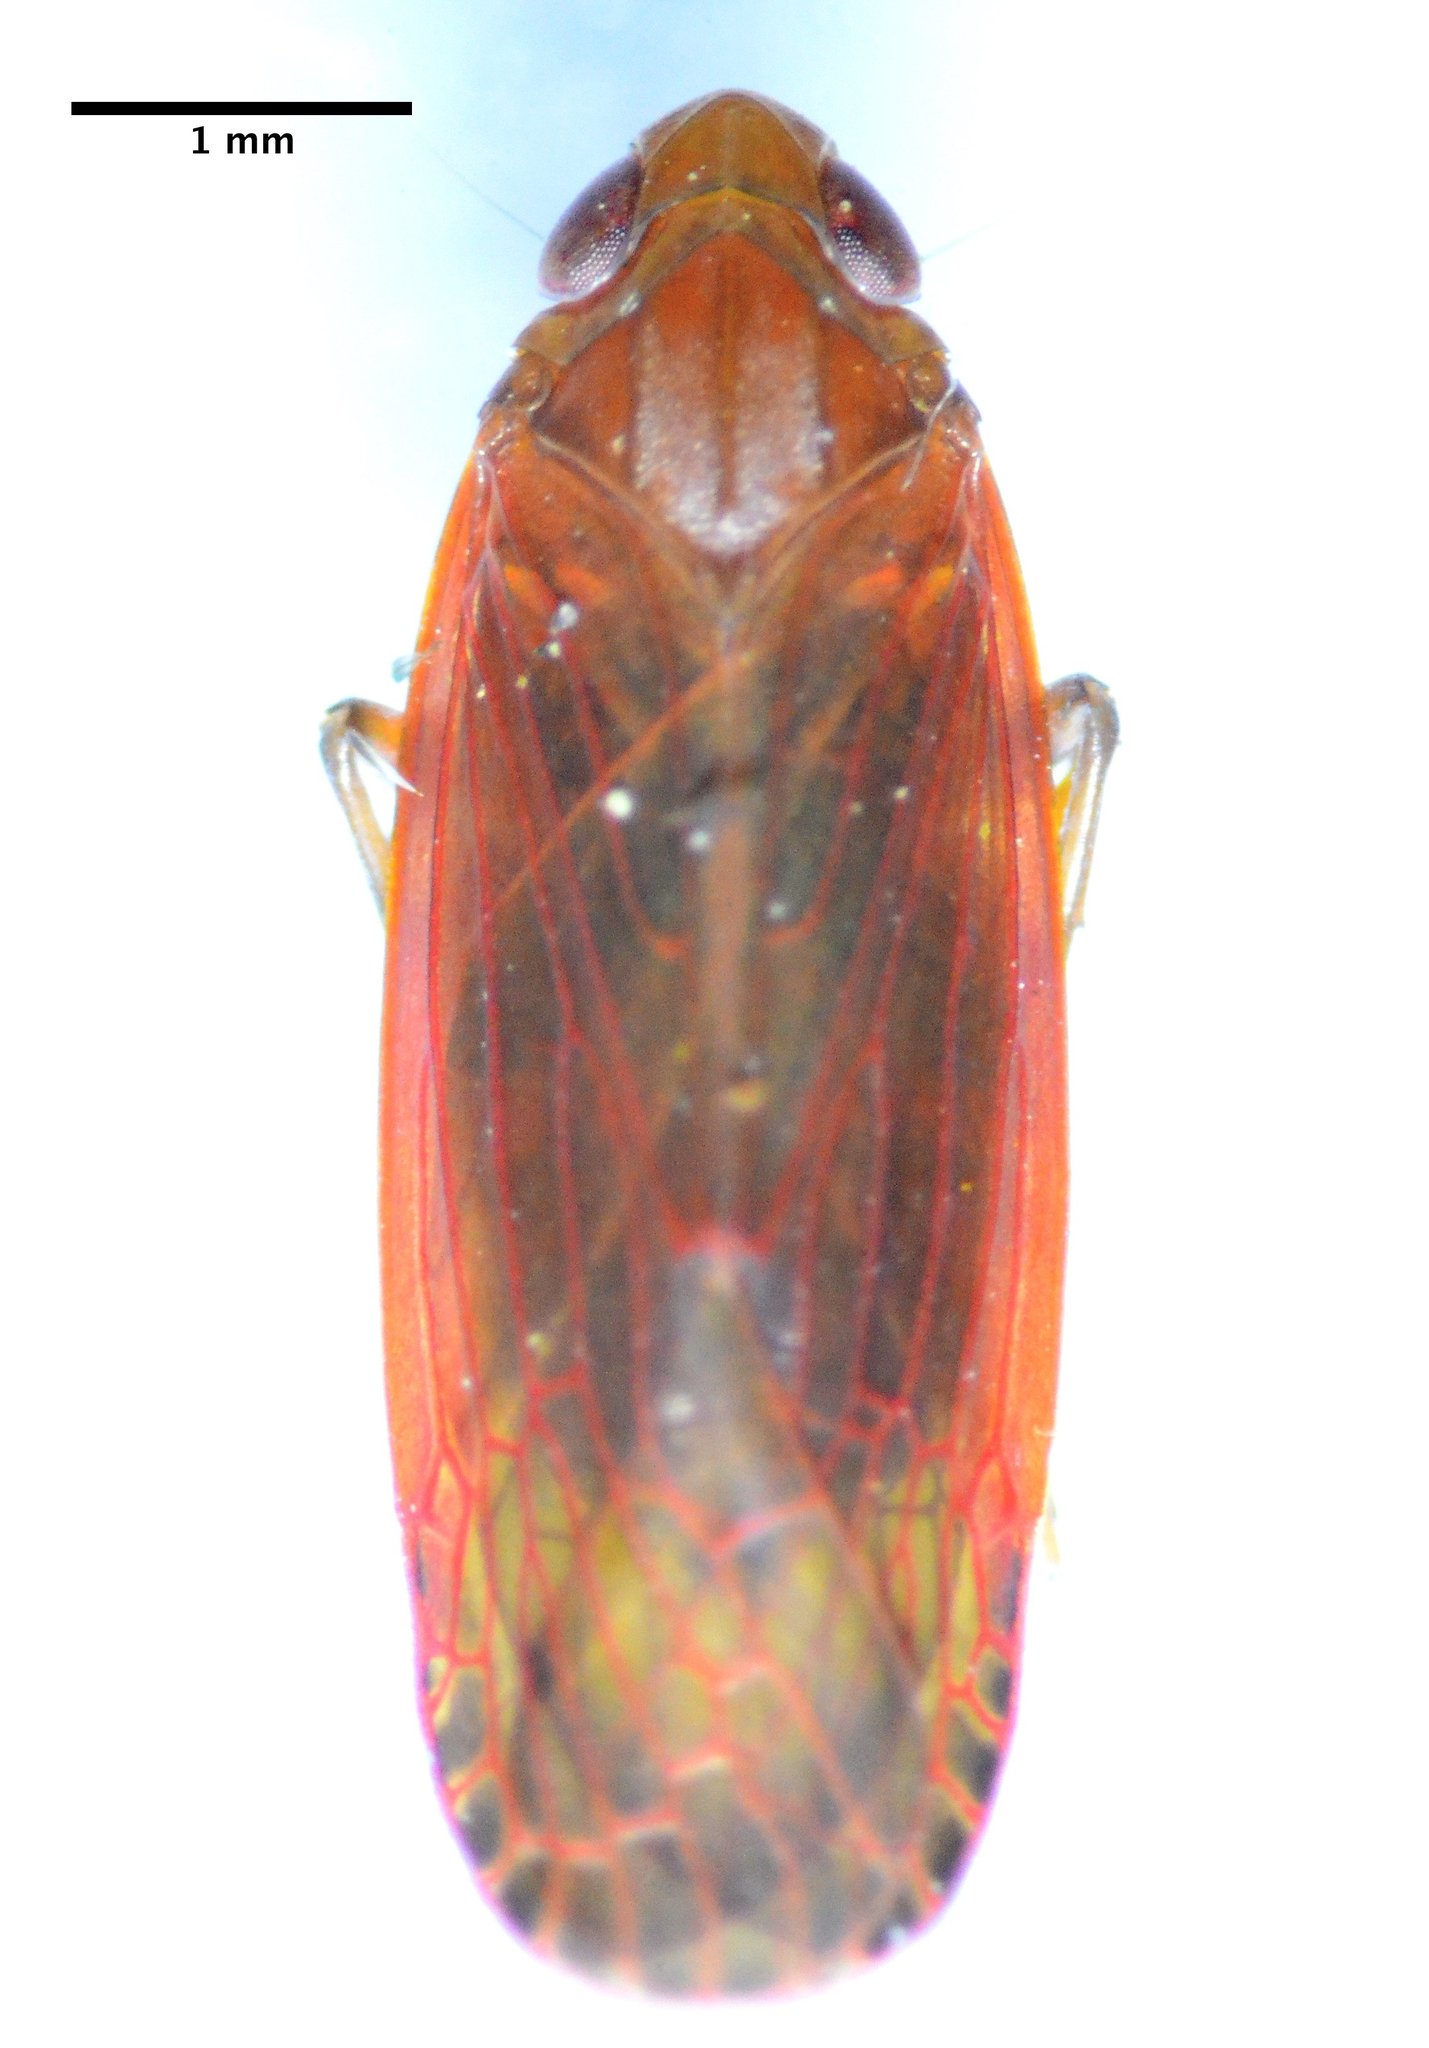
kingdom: Animalia
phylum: Arthropoda
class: Insecta
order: Hemiptera
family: Achilidae
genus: Synecdoche
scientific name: Synecdoche rubella
